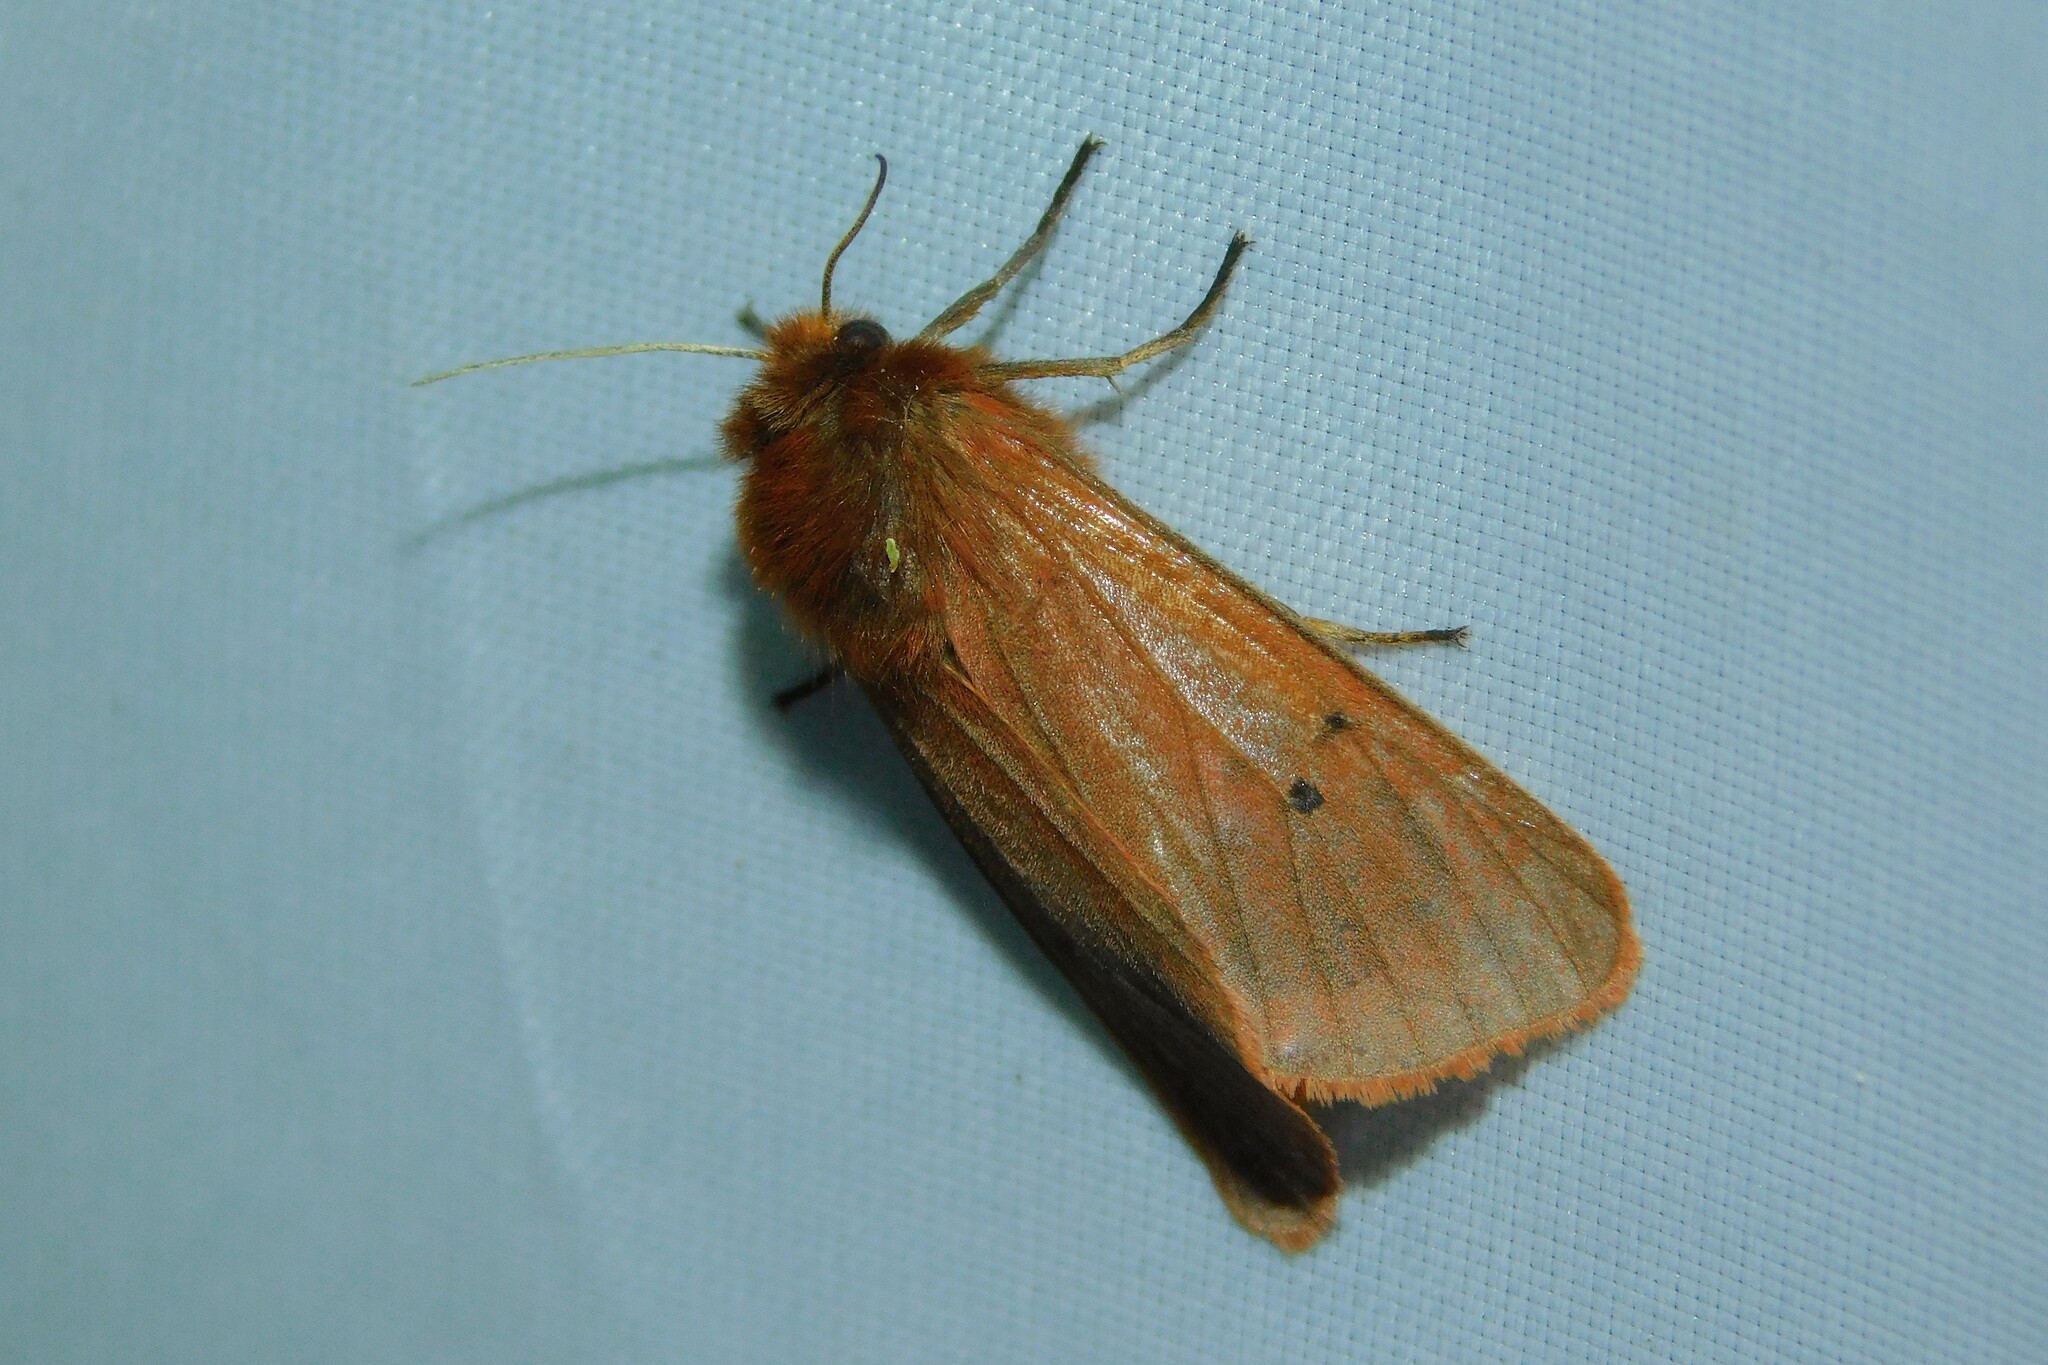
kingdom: Animalia
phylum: Arthropoda
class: Insecta
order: Lepidoptera
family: Erebidae
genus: Phragmatobia
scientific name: Phragmatobia fuliginosa
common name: Ruby tiger
